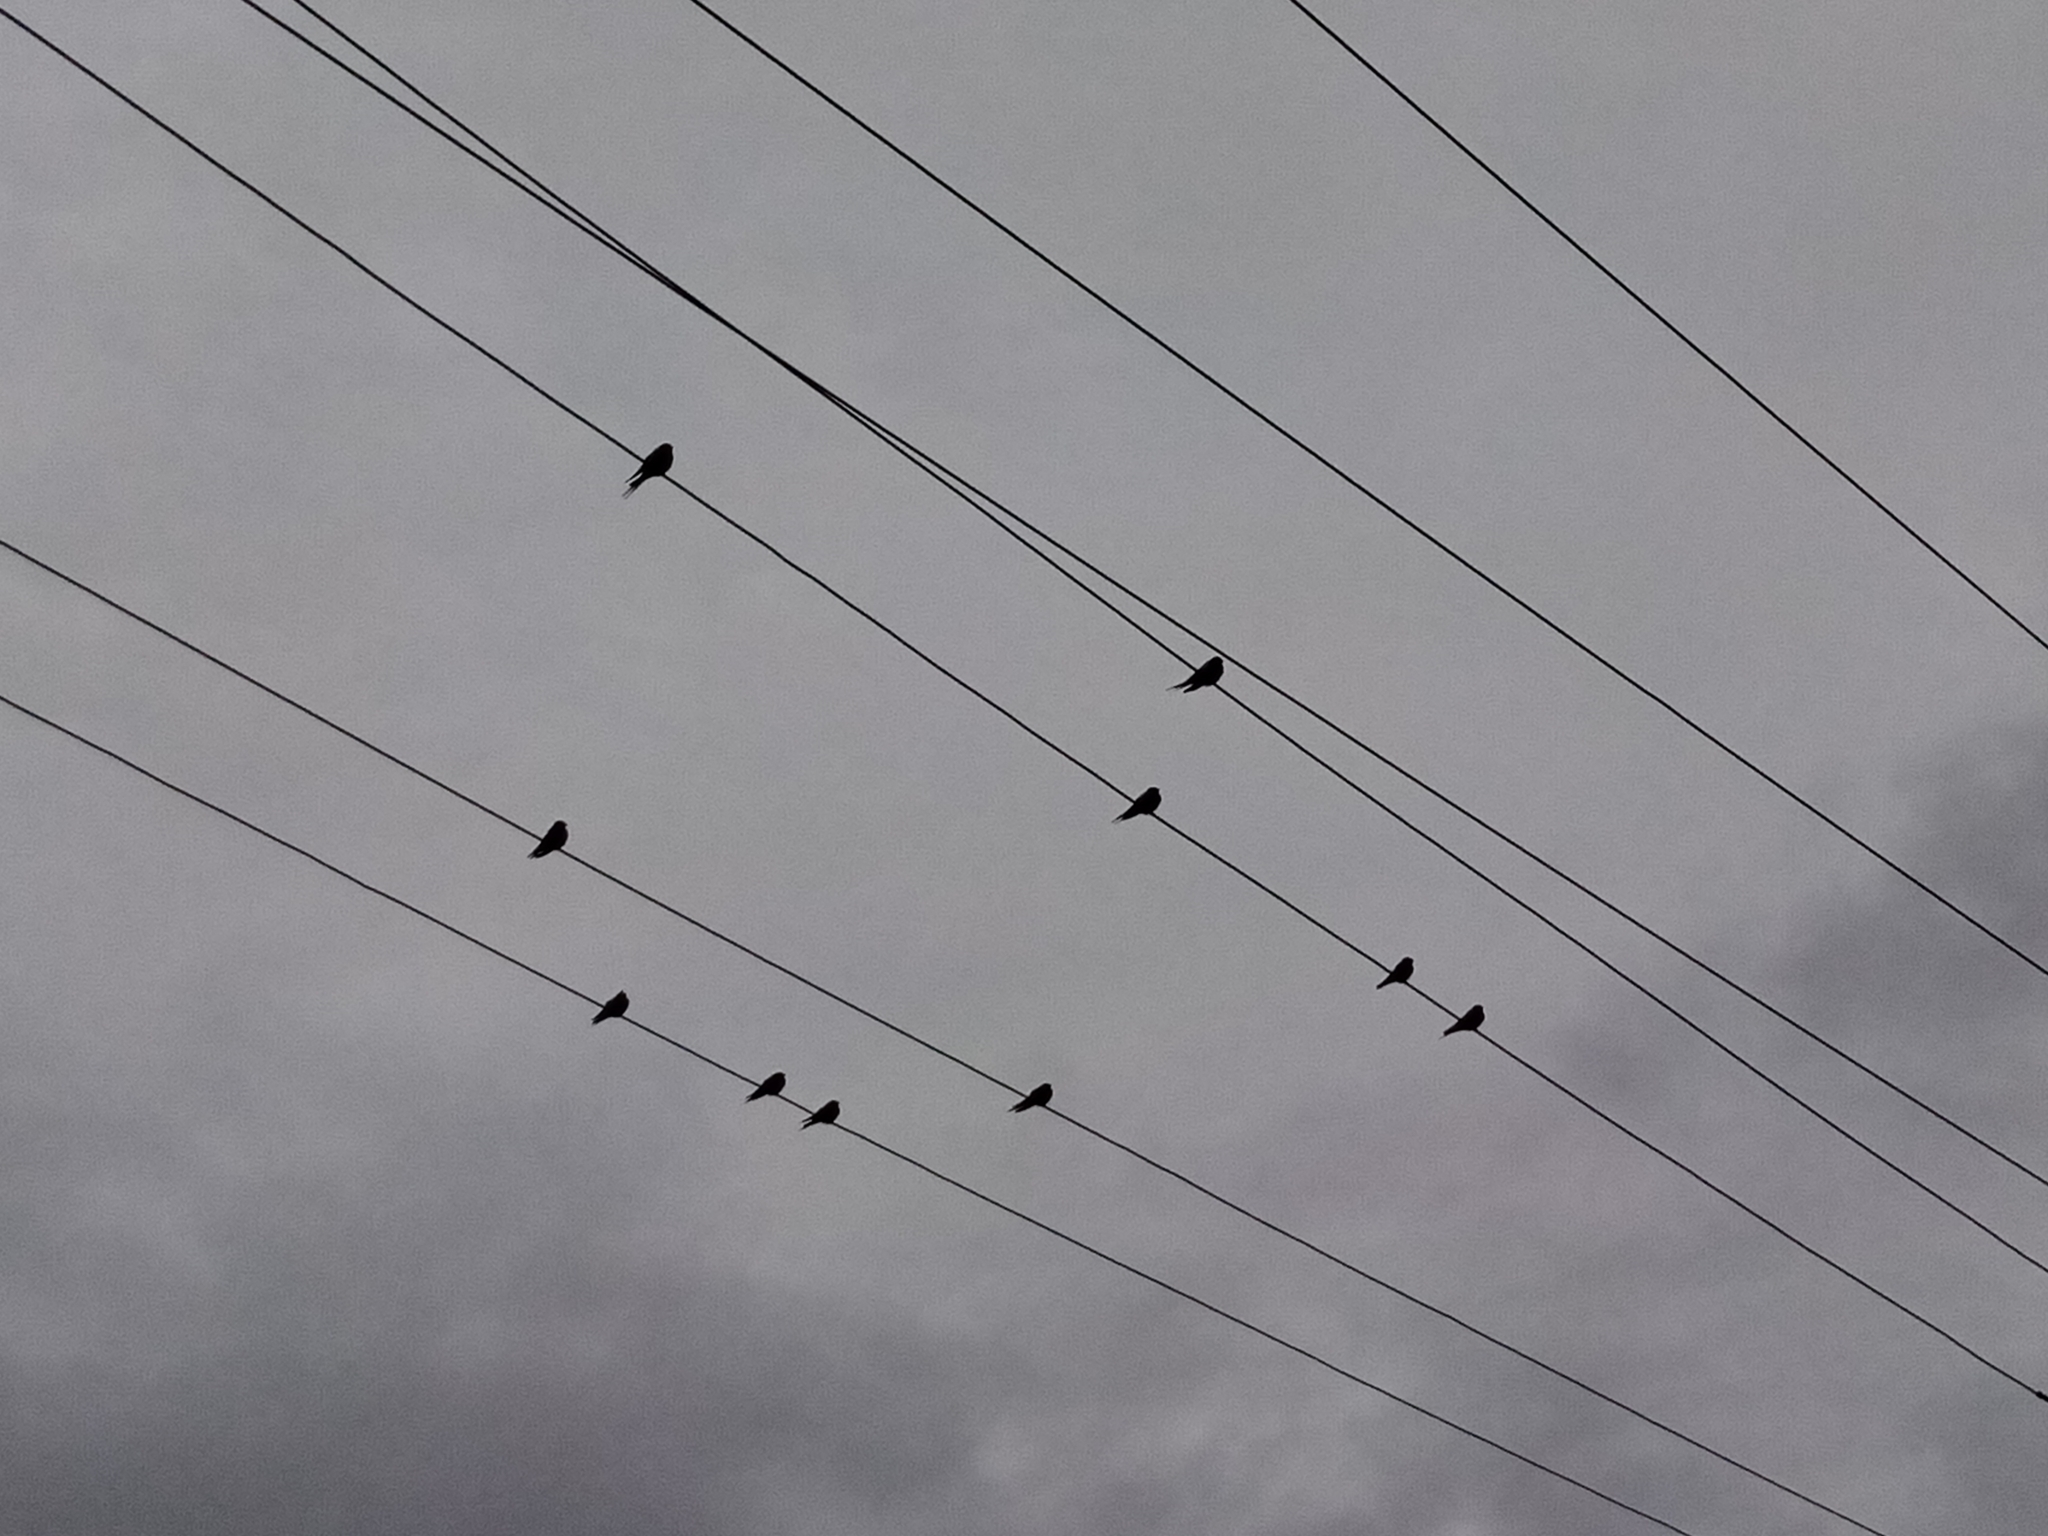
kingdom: Animalia
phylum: Chordata
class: Aves
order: Passeriformes
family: Hirundinidae
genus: Hirundo
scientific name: Hirundo neoxena
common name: Welcome swallow
